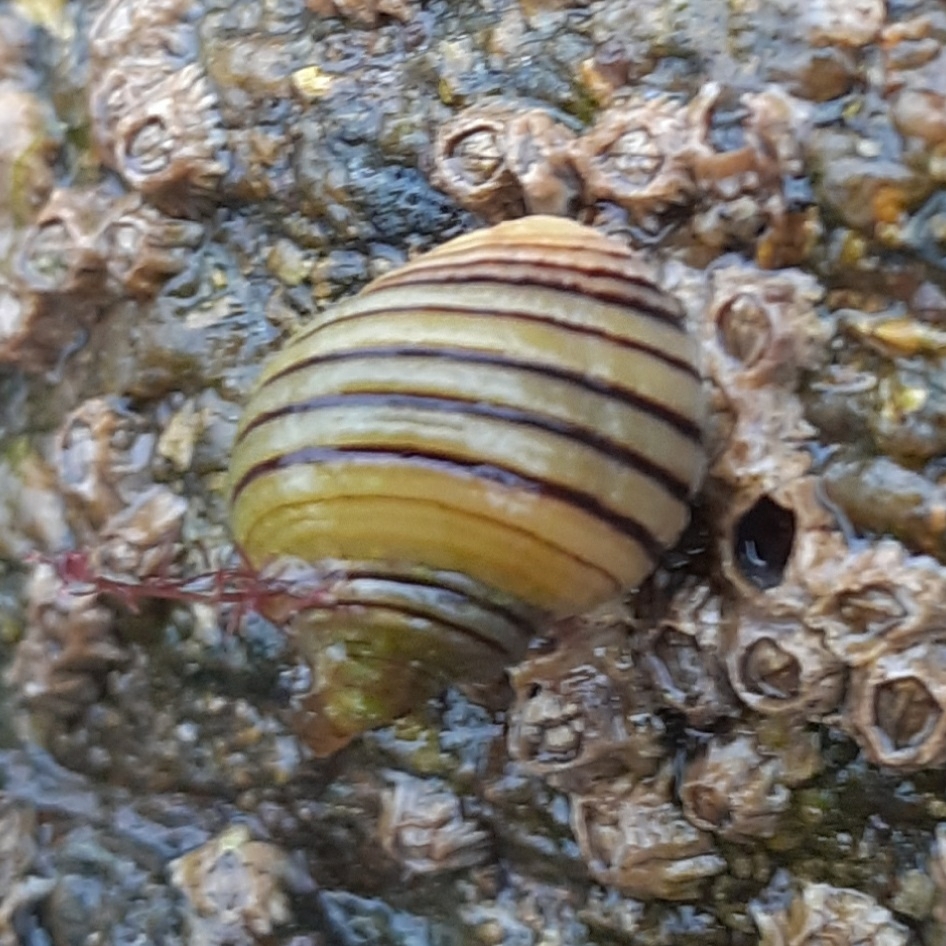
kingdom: Animalia
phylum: Mollusca
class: Gastropoda
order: Littorinimorpha
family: Littorinidae
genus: Littorina
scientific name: Littorina saxatilis
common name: Black-lined periwinkle
